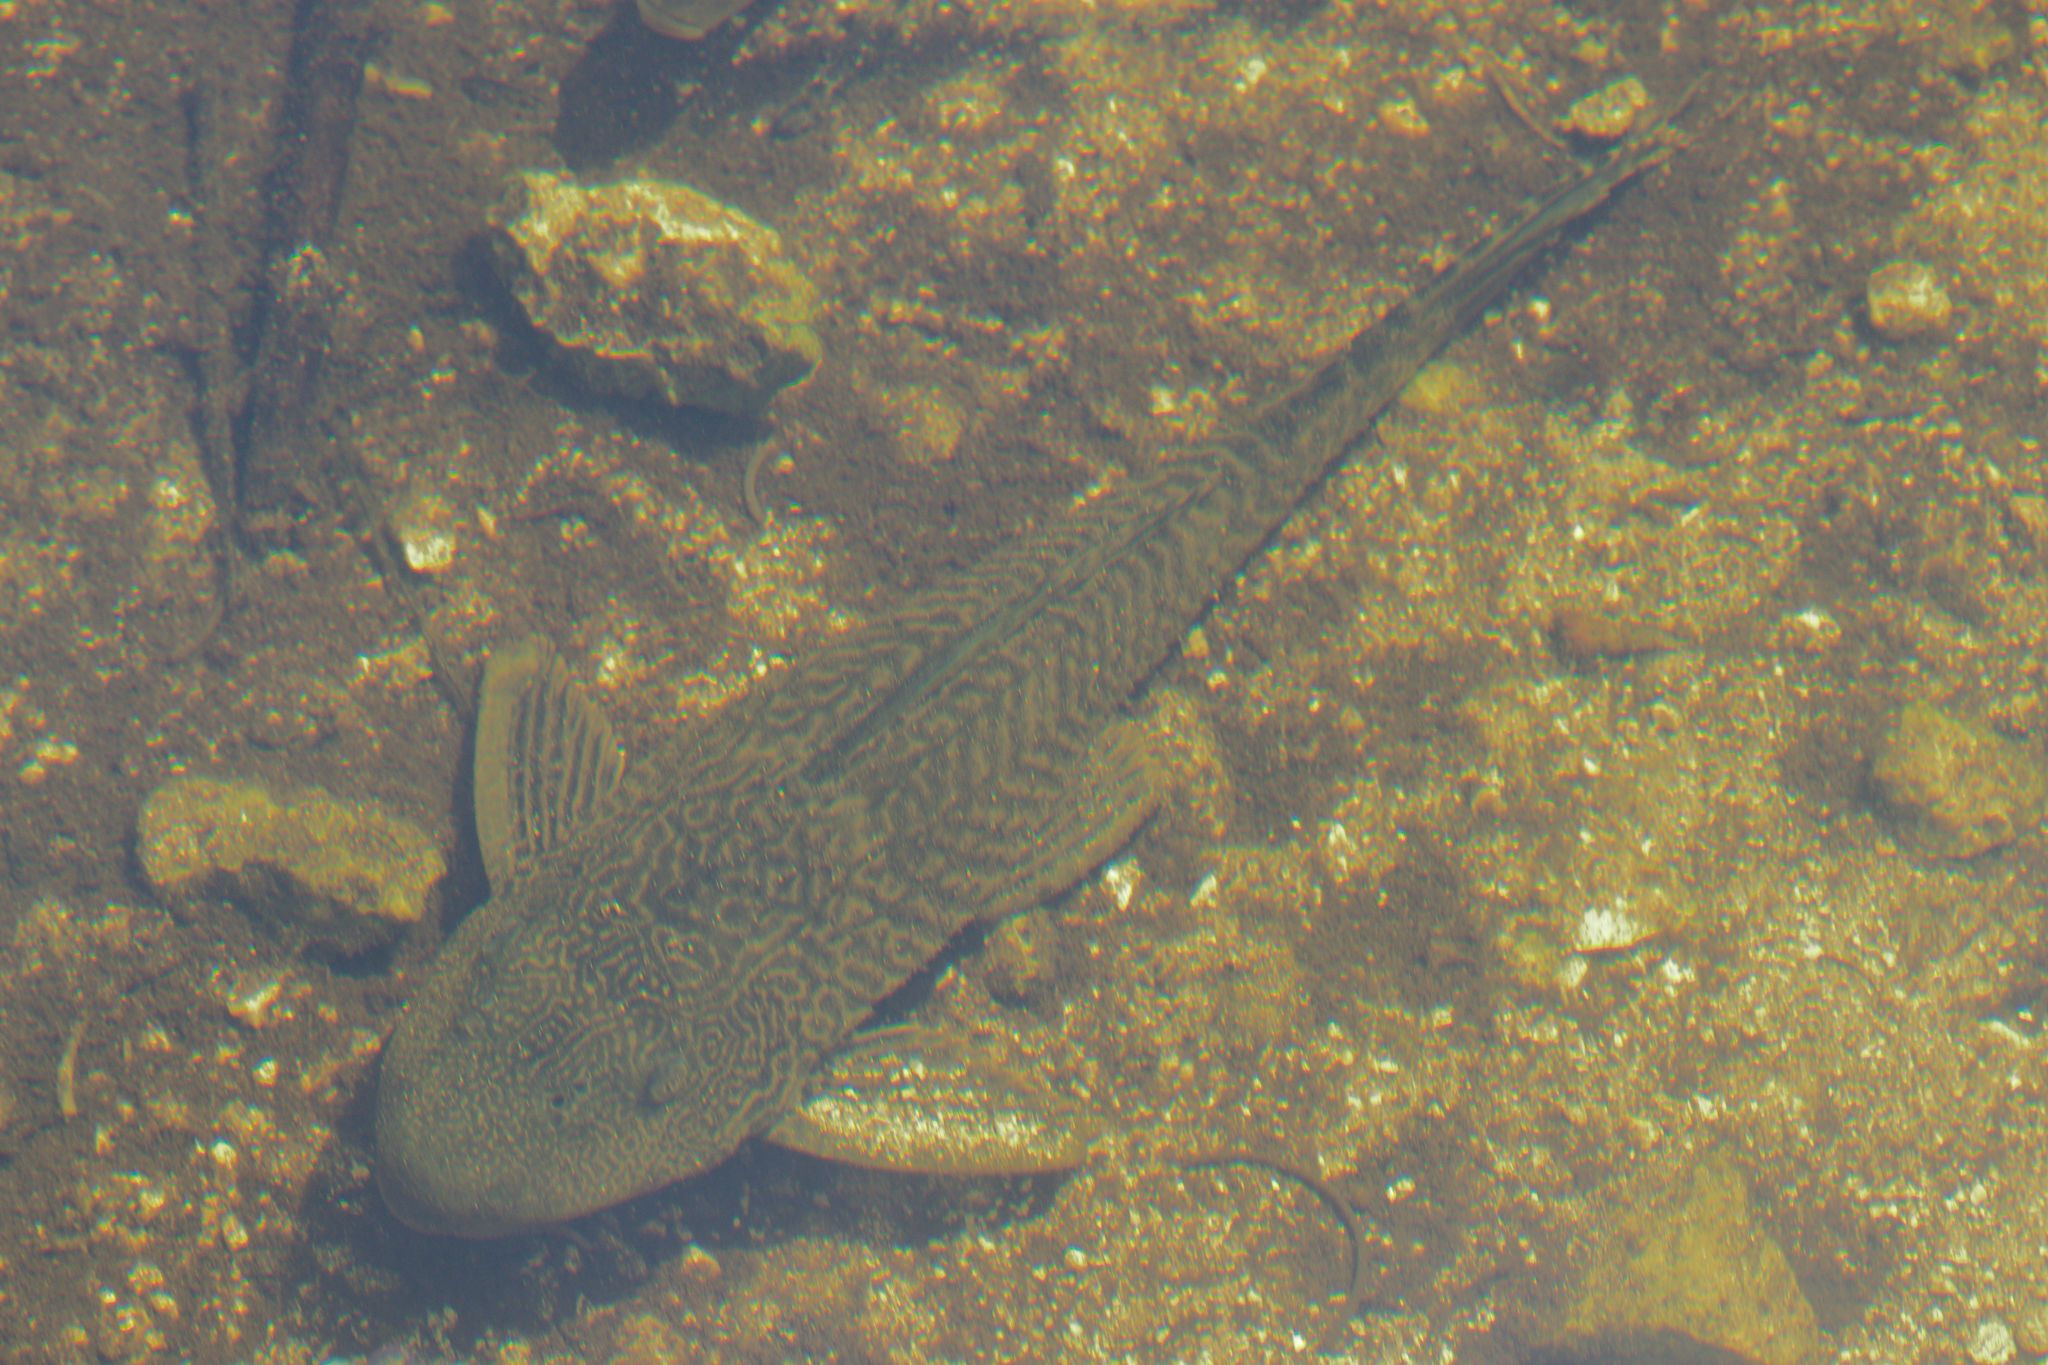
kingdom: Animalia
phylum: Chordata
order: Siluriformes
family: Loricariidae
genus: Pterygoplichthys
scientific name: Pterygoplichthys
